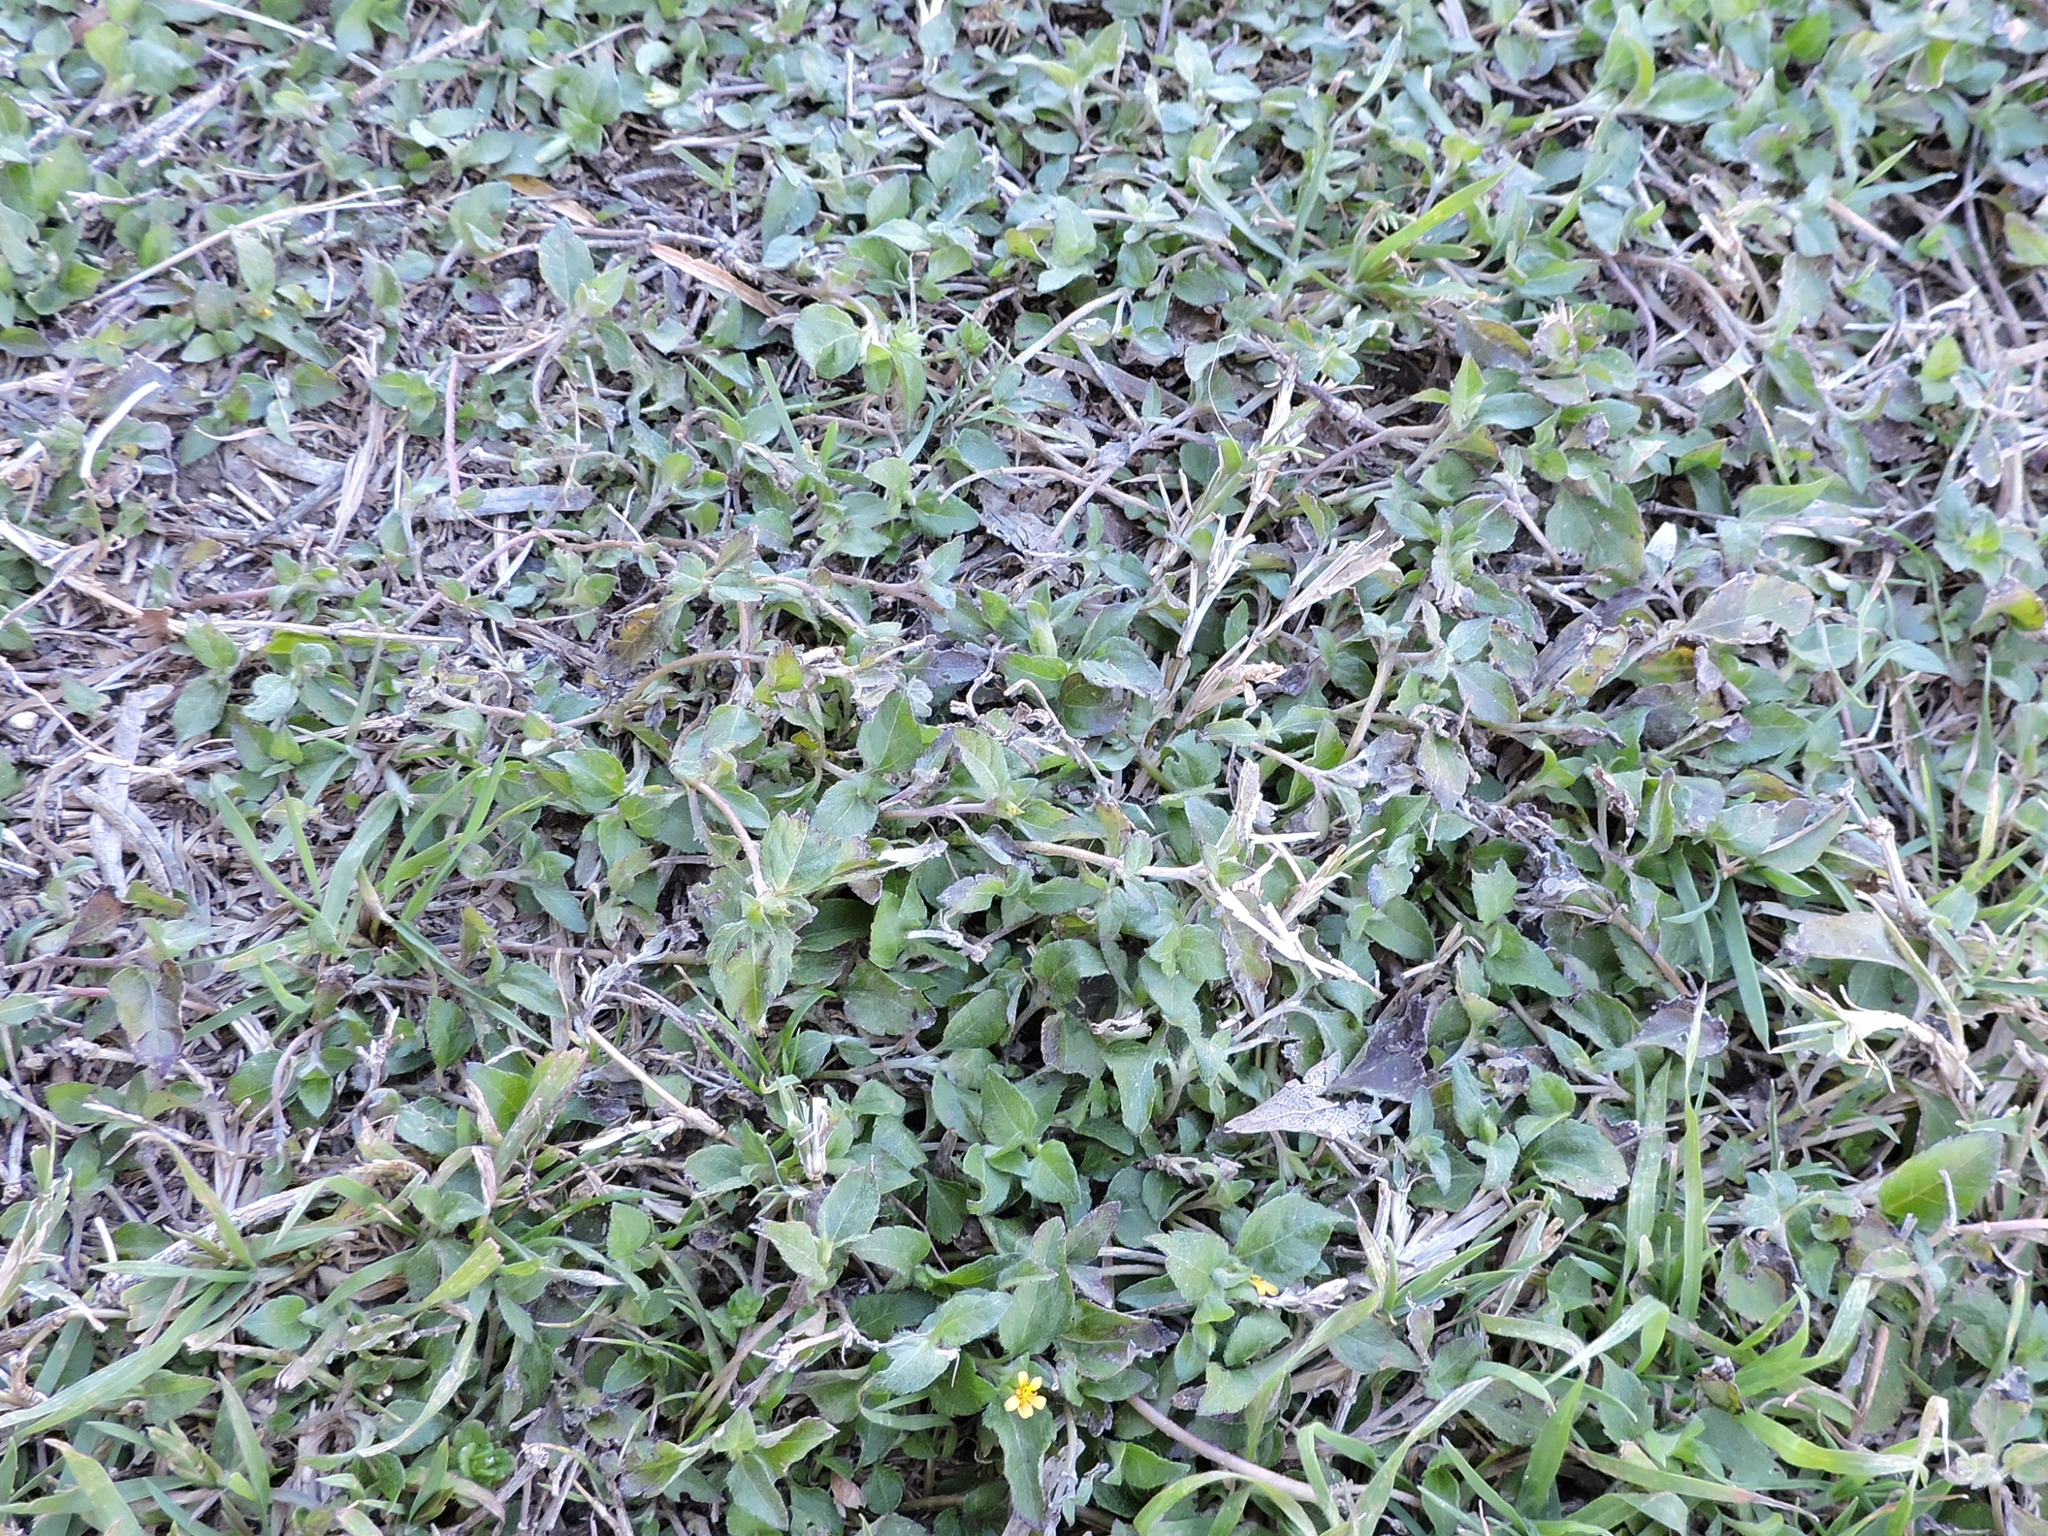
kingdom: Plantae
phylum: Tracheophyta
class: Magnoliopsida
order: Asterales
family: Asteraceae
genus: Calyptocarpus
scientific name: Calyptocarpus vialis
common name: Straggler daisy
